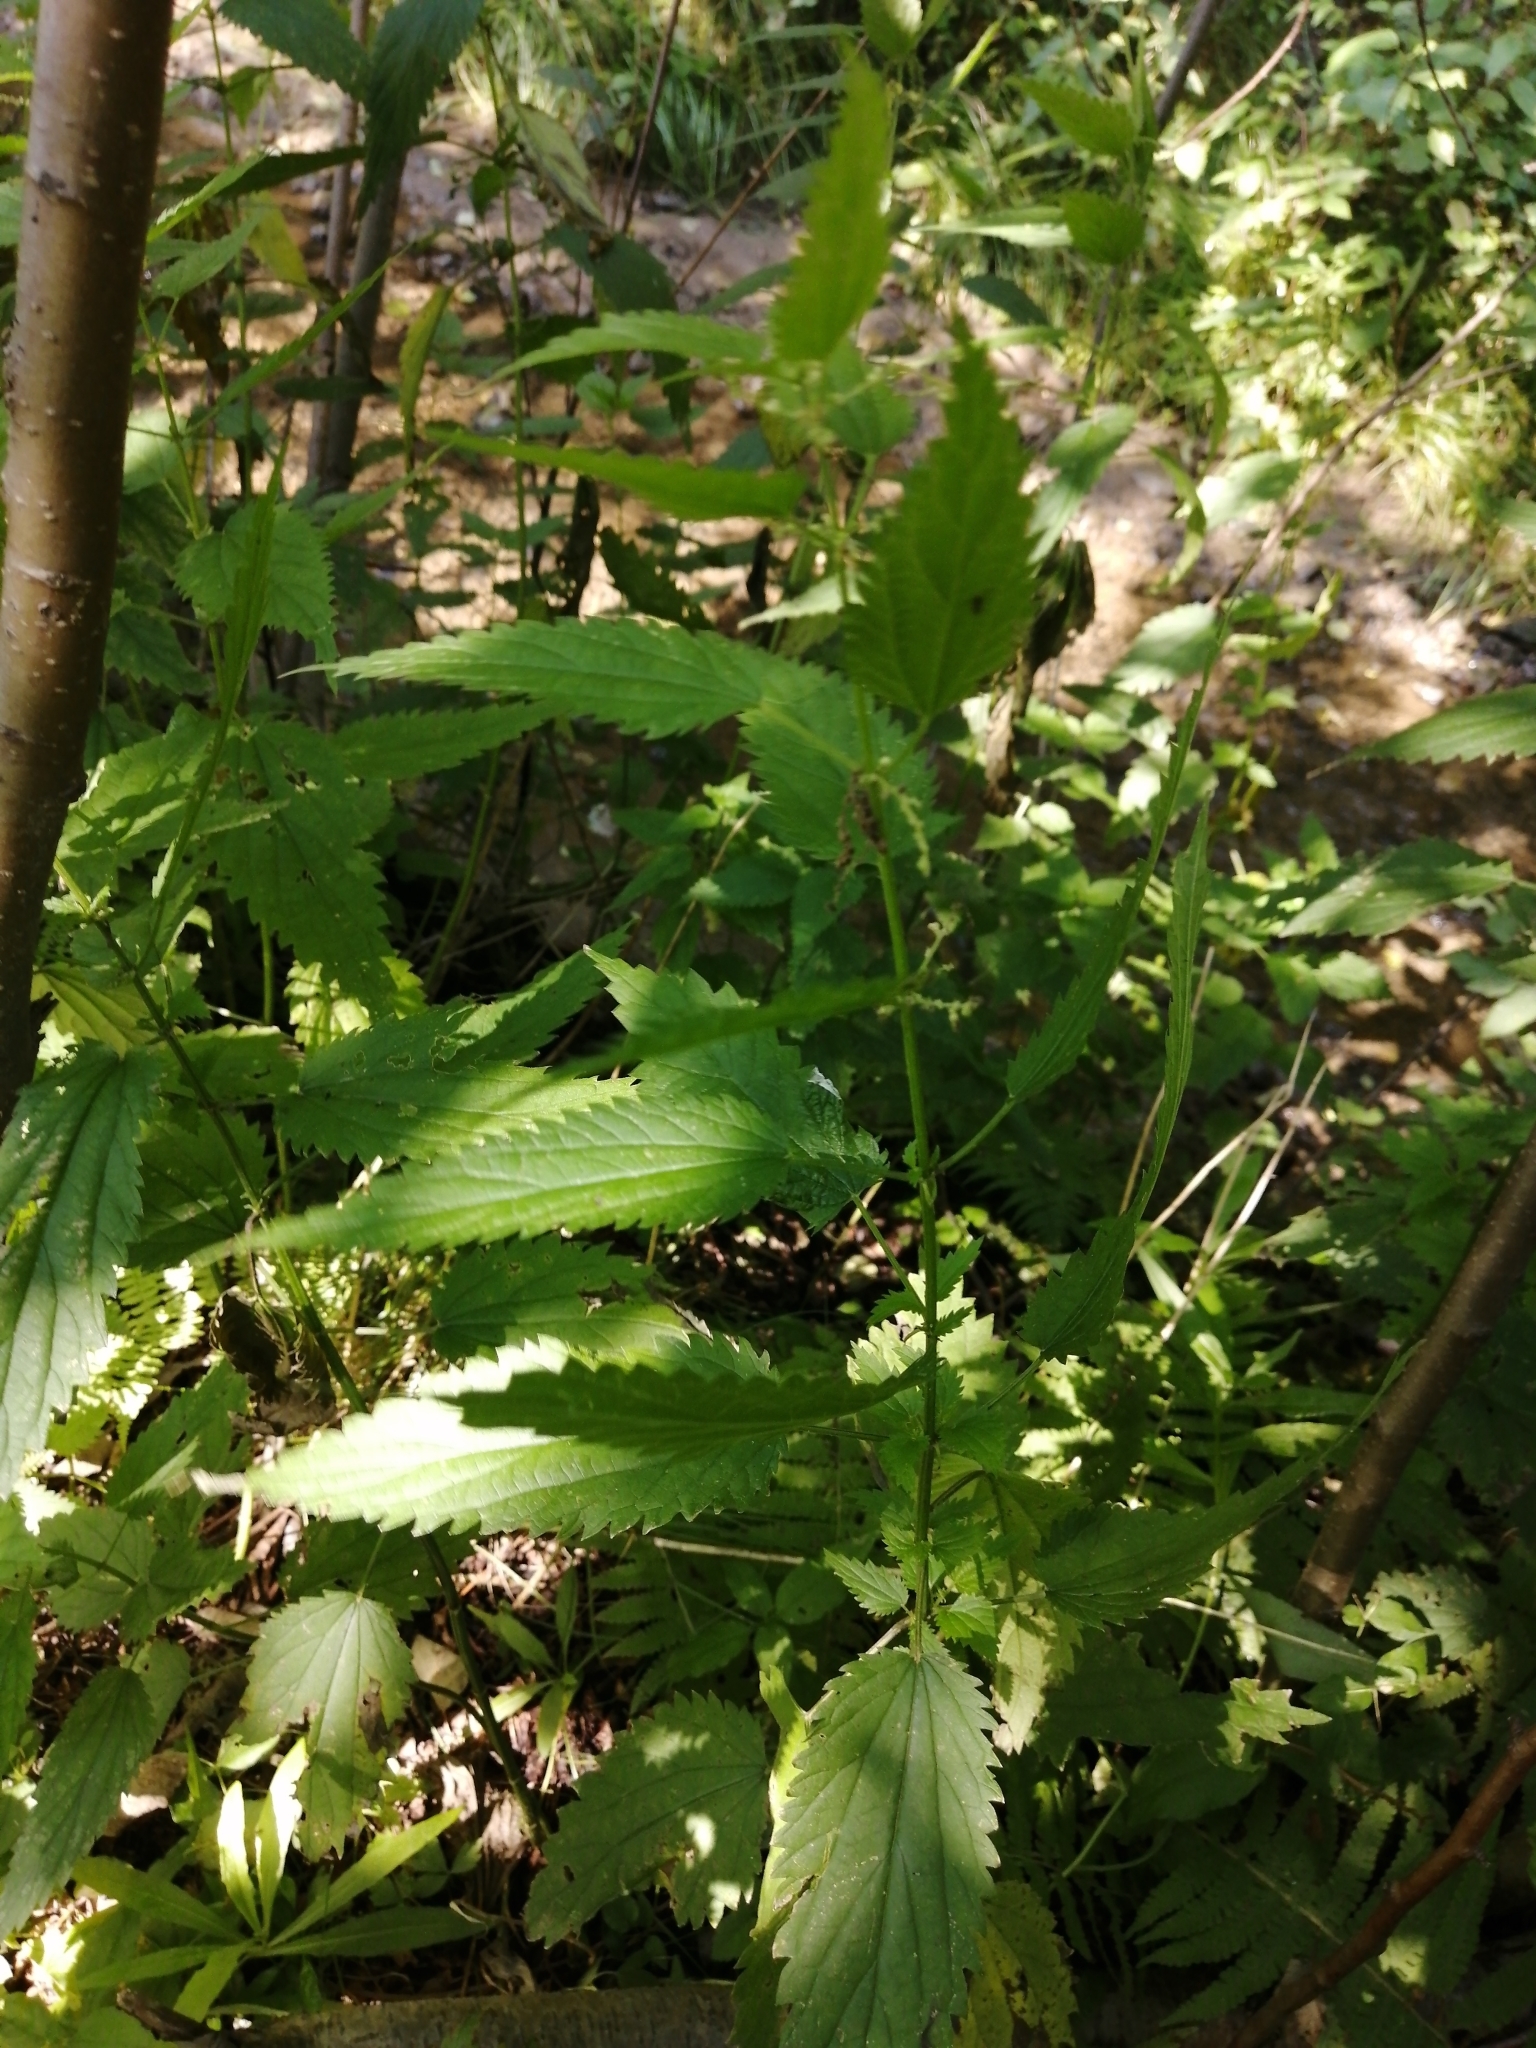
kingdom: Plantae
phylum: Tracheophyta
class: Magnoliopsida
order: Rosales
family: Urticaceae
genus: Urtica
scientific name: Urtica dioica
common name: Common nettle
